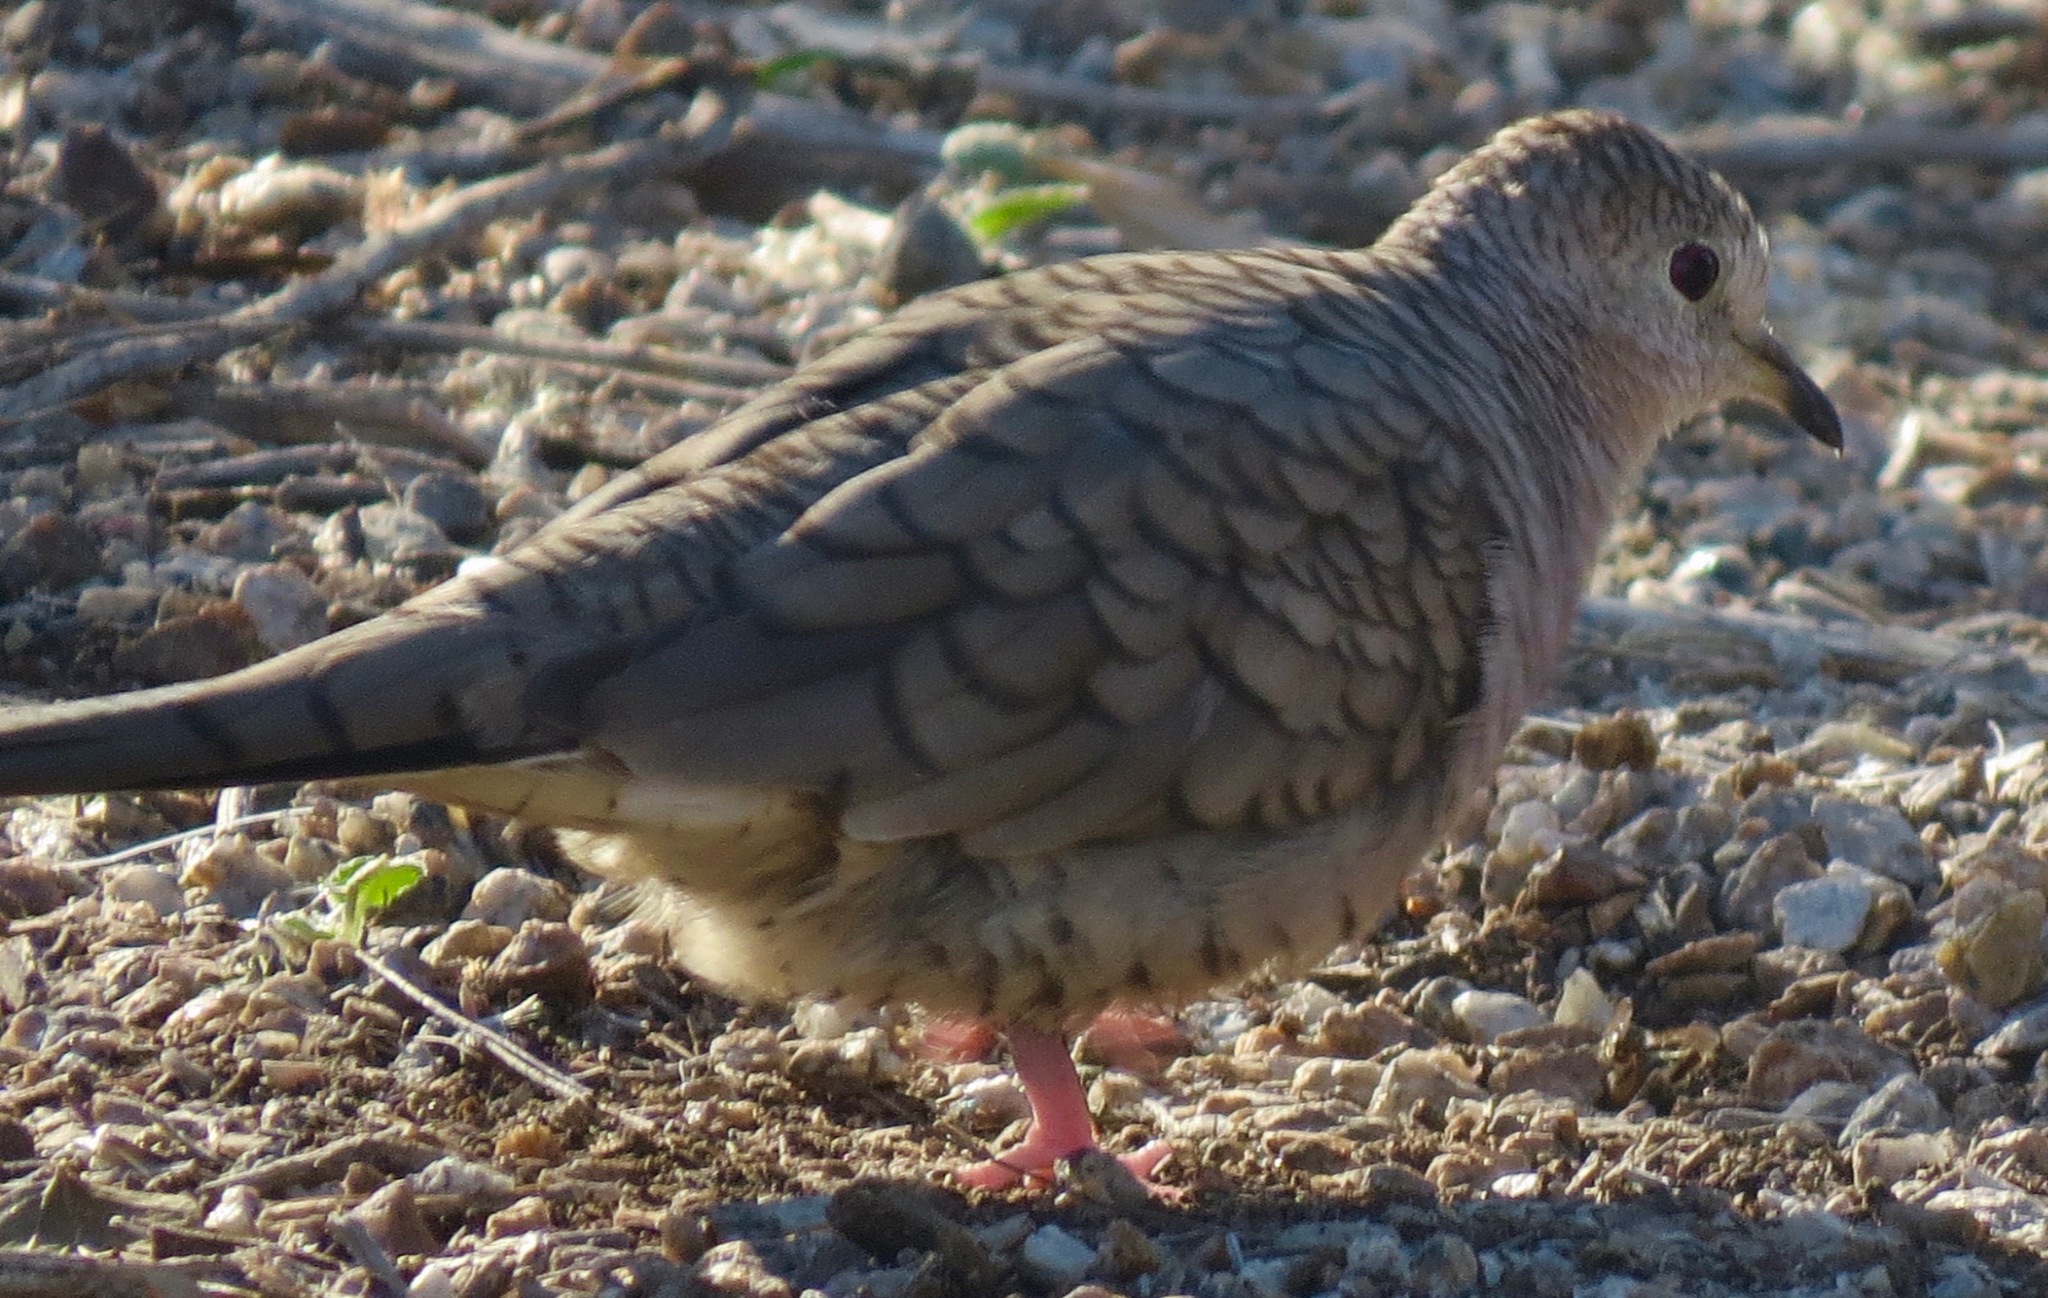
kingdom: Animalia
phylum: Chordata
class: Aves
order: Columbiformes
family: Columbidae
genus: Columbina
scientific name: Columbina inca
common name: Inca dove
